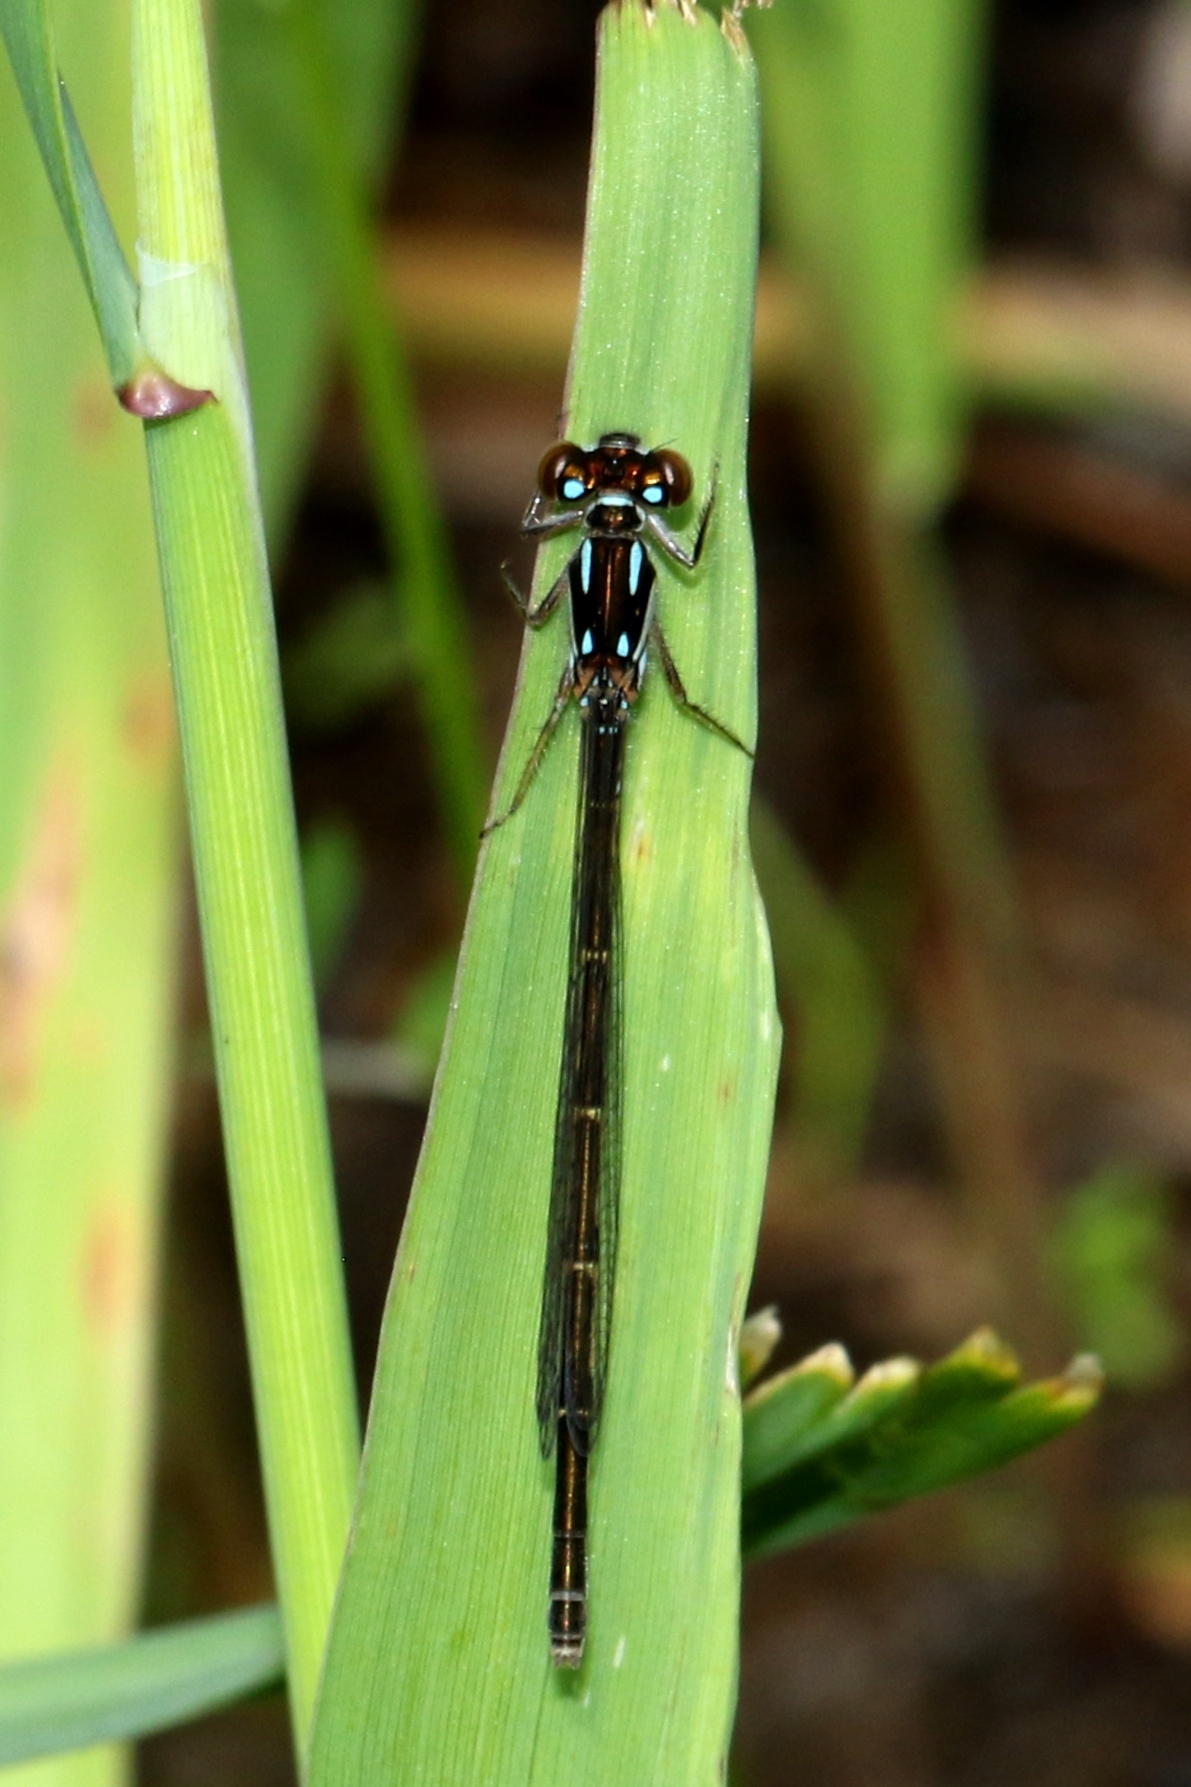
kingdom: Animalia
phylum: Arthropoda
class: Insecta
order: Odonata
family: Coenagrionidae
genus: Ischnura
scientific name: Ischnura posita
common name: Fragile forktail
